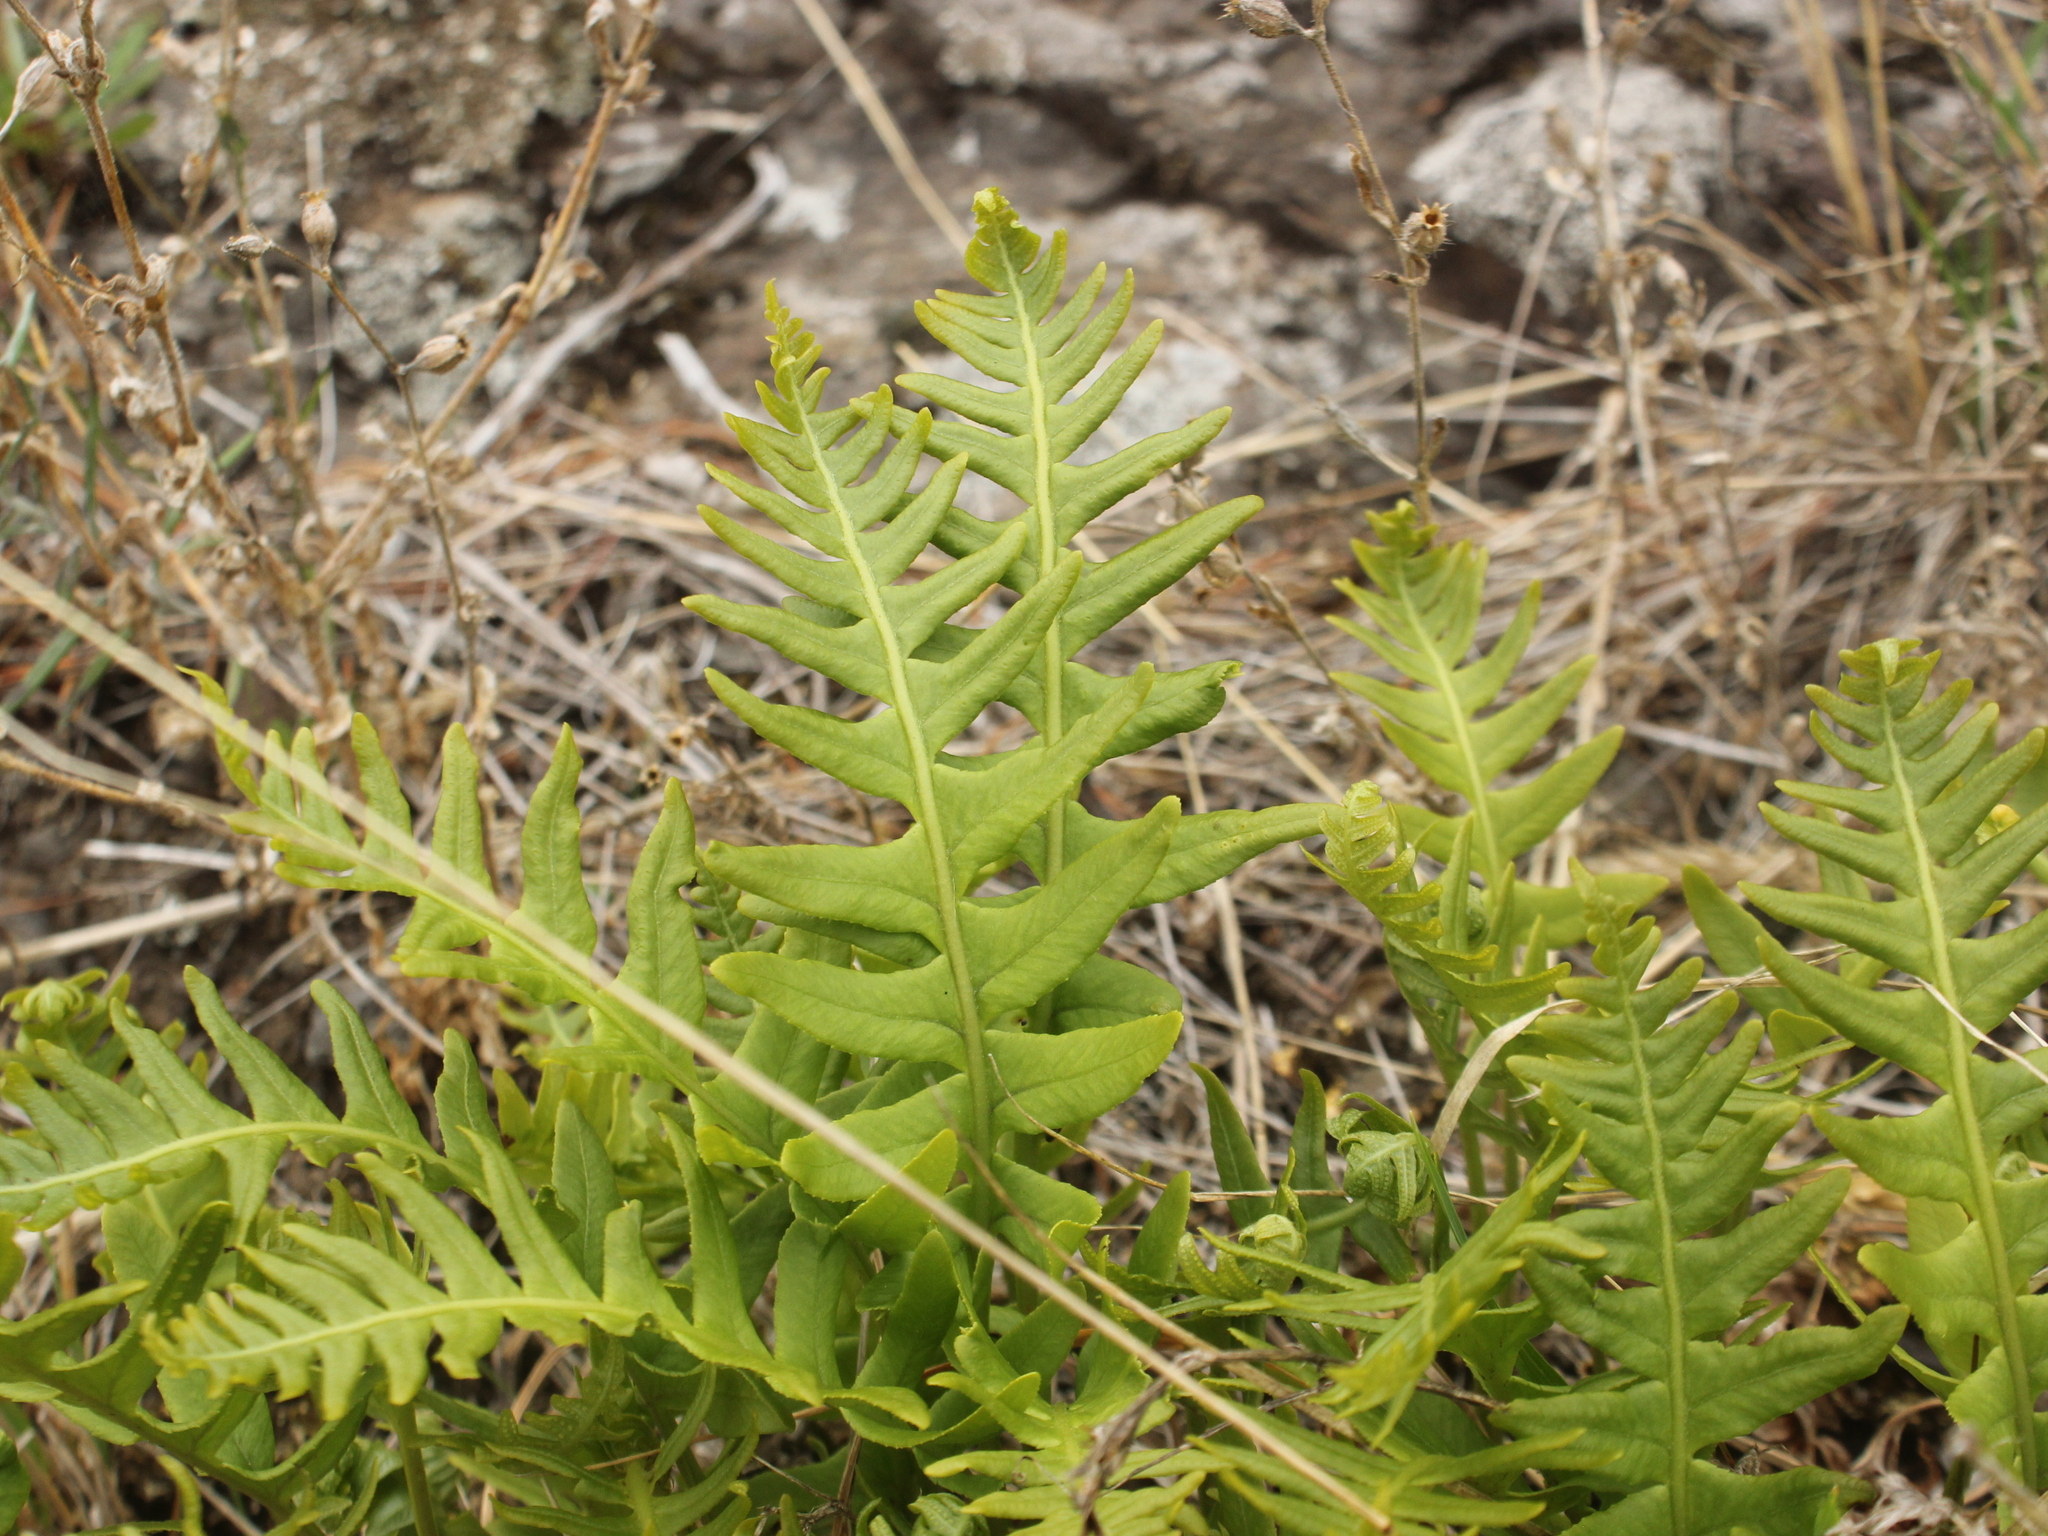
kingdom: Plantae
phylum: Tracheophyta
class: Polypodiopsida
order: Polypodiales
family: Polypodiaceae
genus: Polypodium
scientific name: Polypodium vulgare
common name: Common polypody
